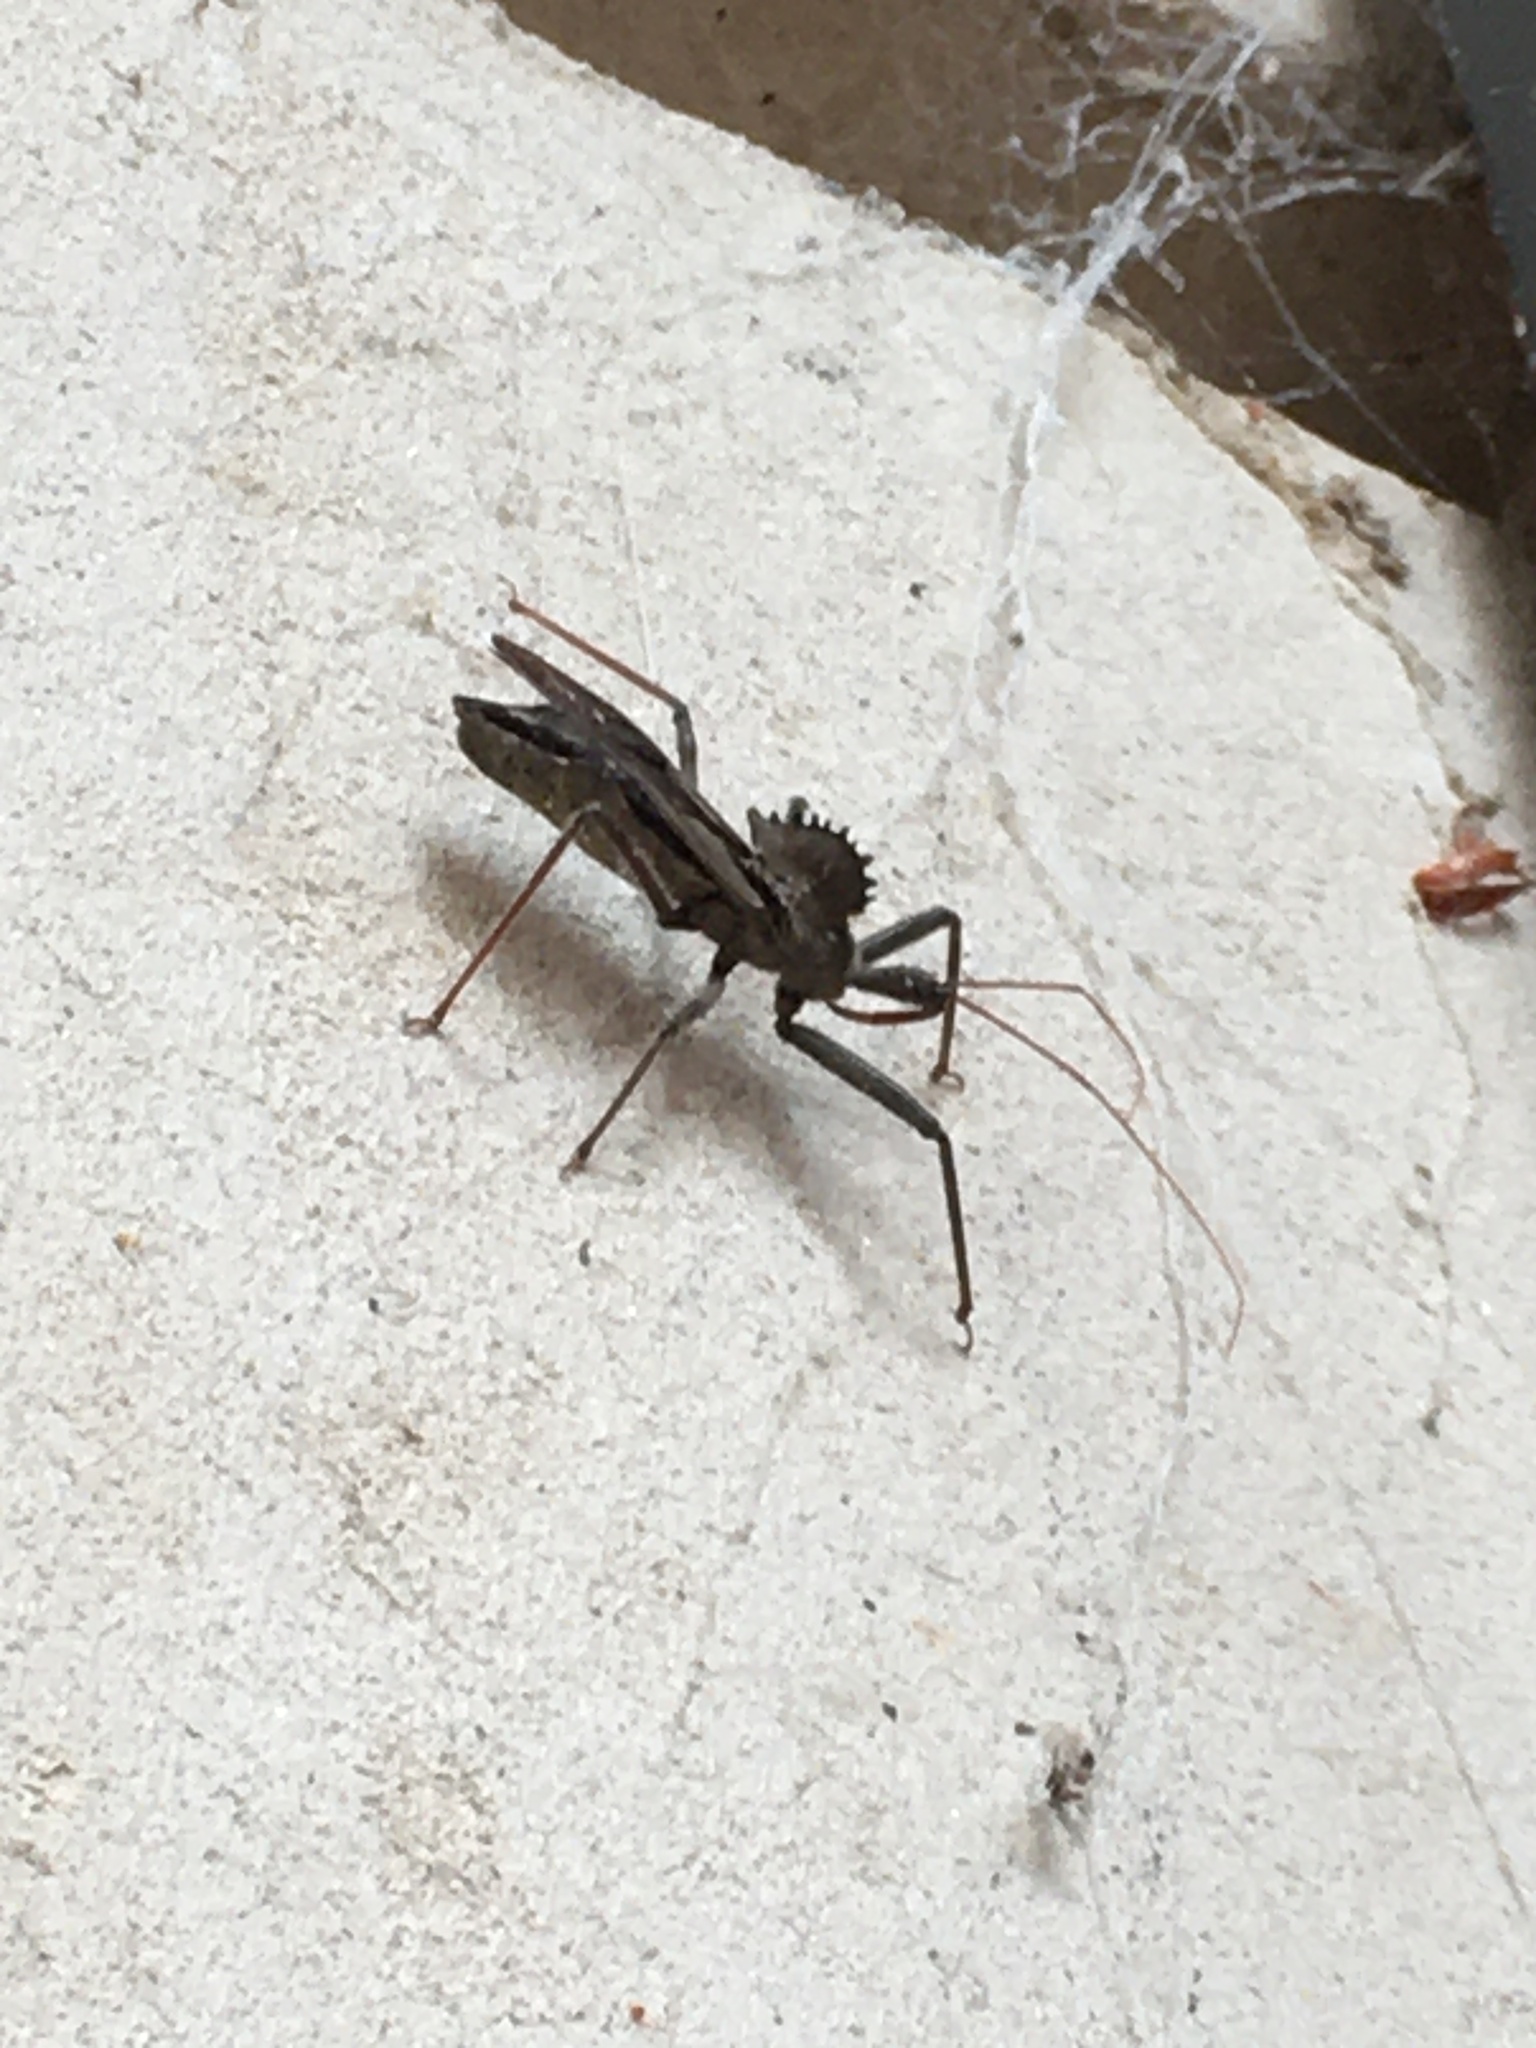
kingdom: Animalia
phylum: Arthropoda
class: Insecta
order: Hemiptera
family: Reduviidae
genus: Arilus
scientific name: Arilus cristatus
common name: North american wheel bug
